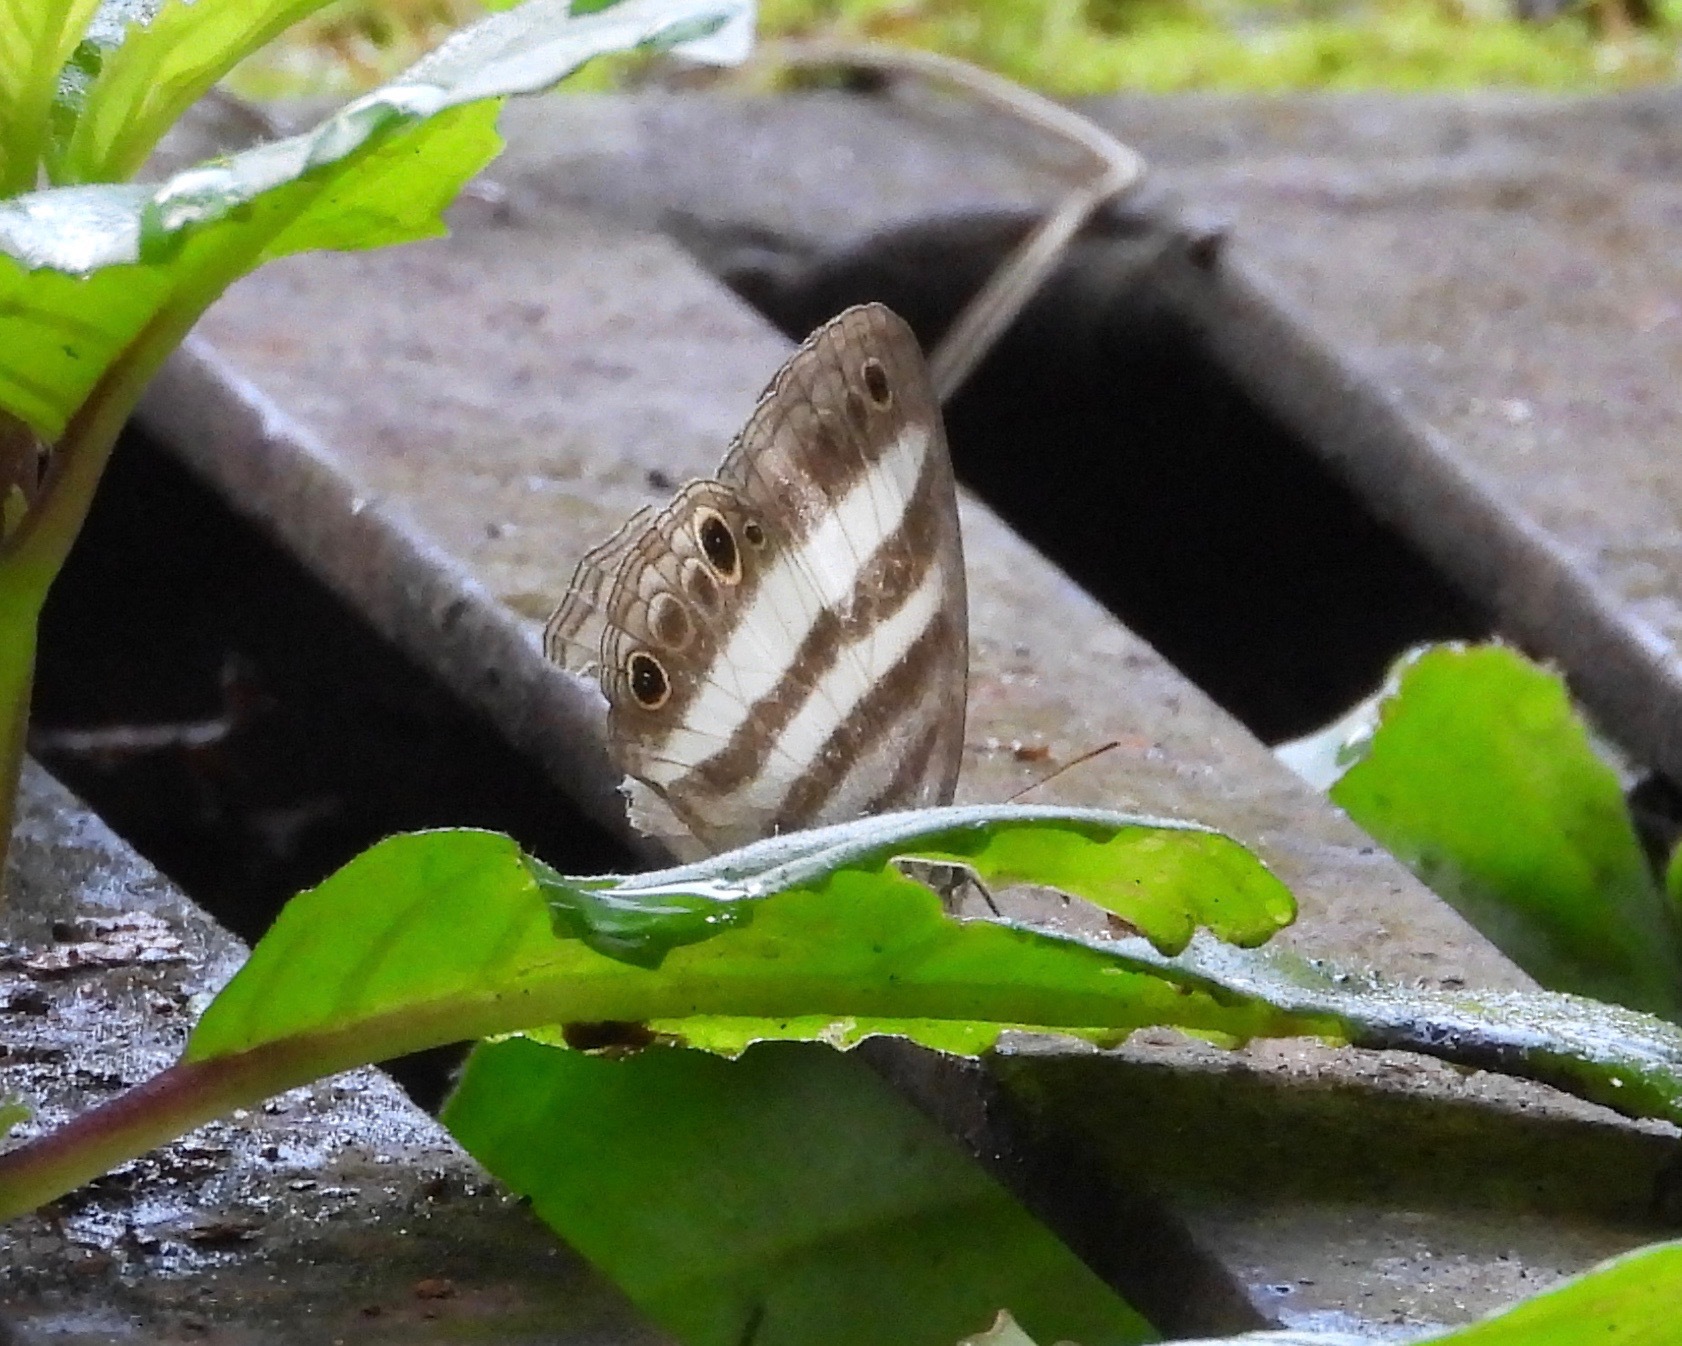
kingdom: Animalia
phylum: Arthropoda
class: Insecta
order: Lepidoptera
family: Nymphalidae
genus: Pareuptychia
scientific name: Pareuptychia hesione
